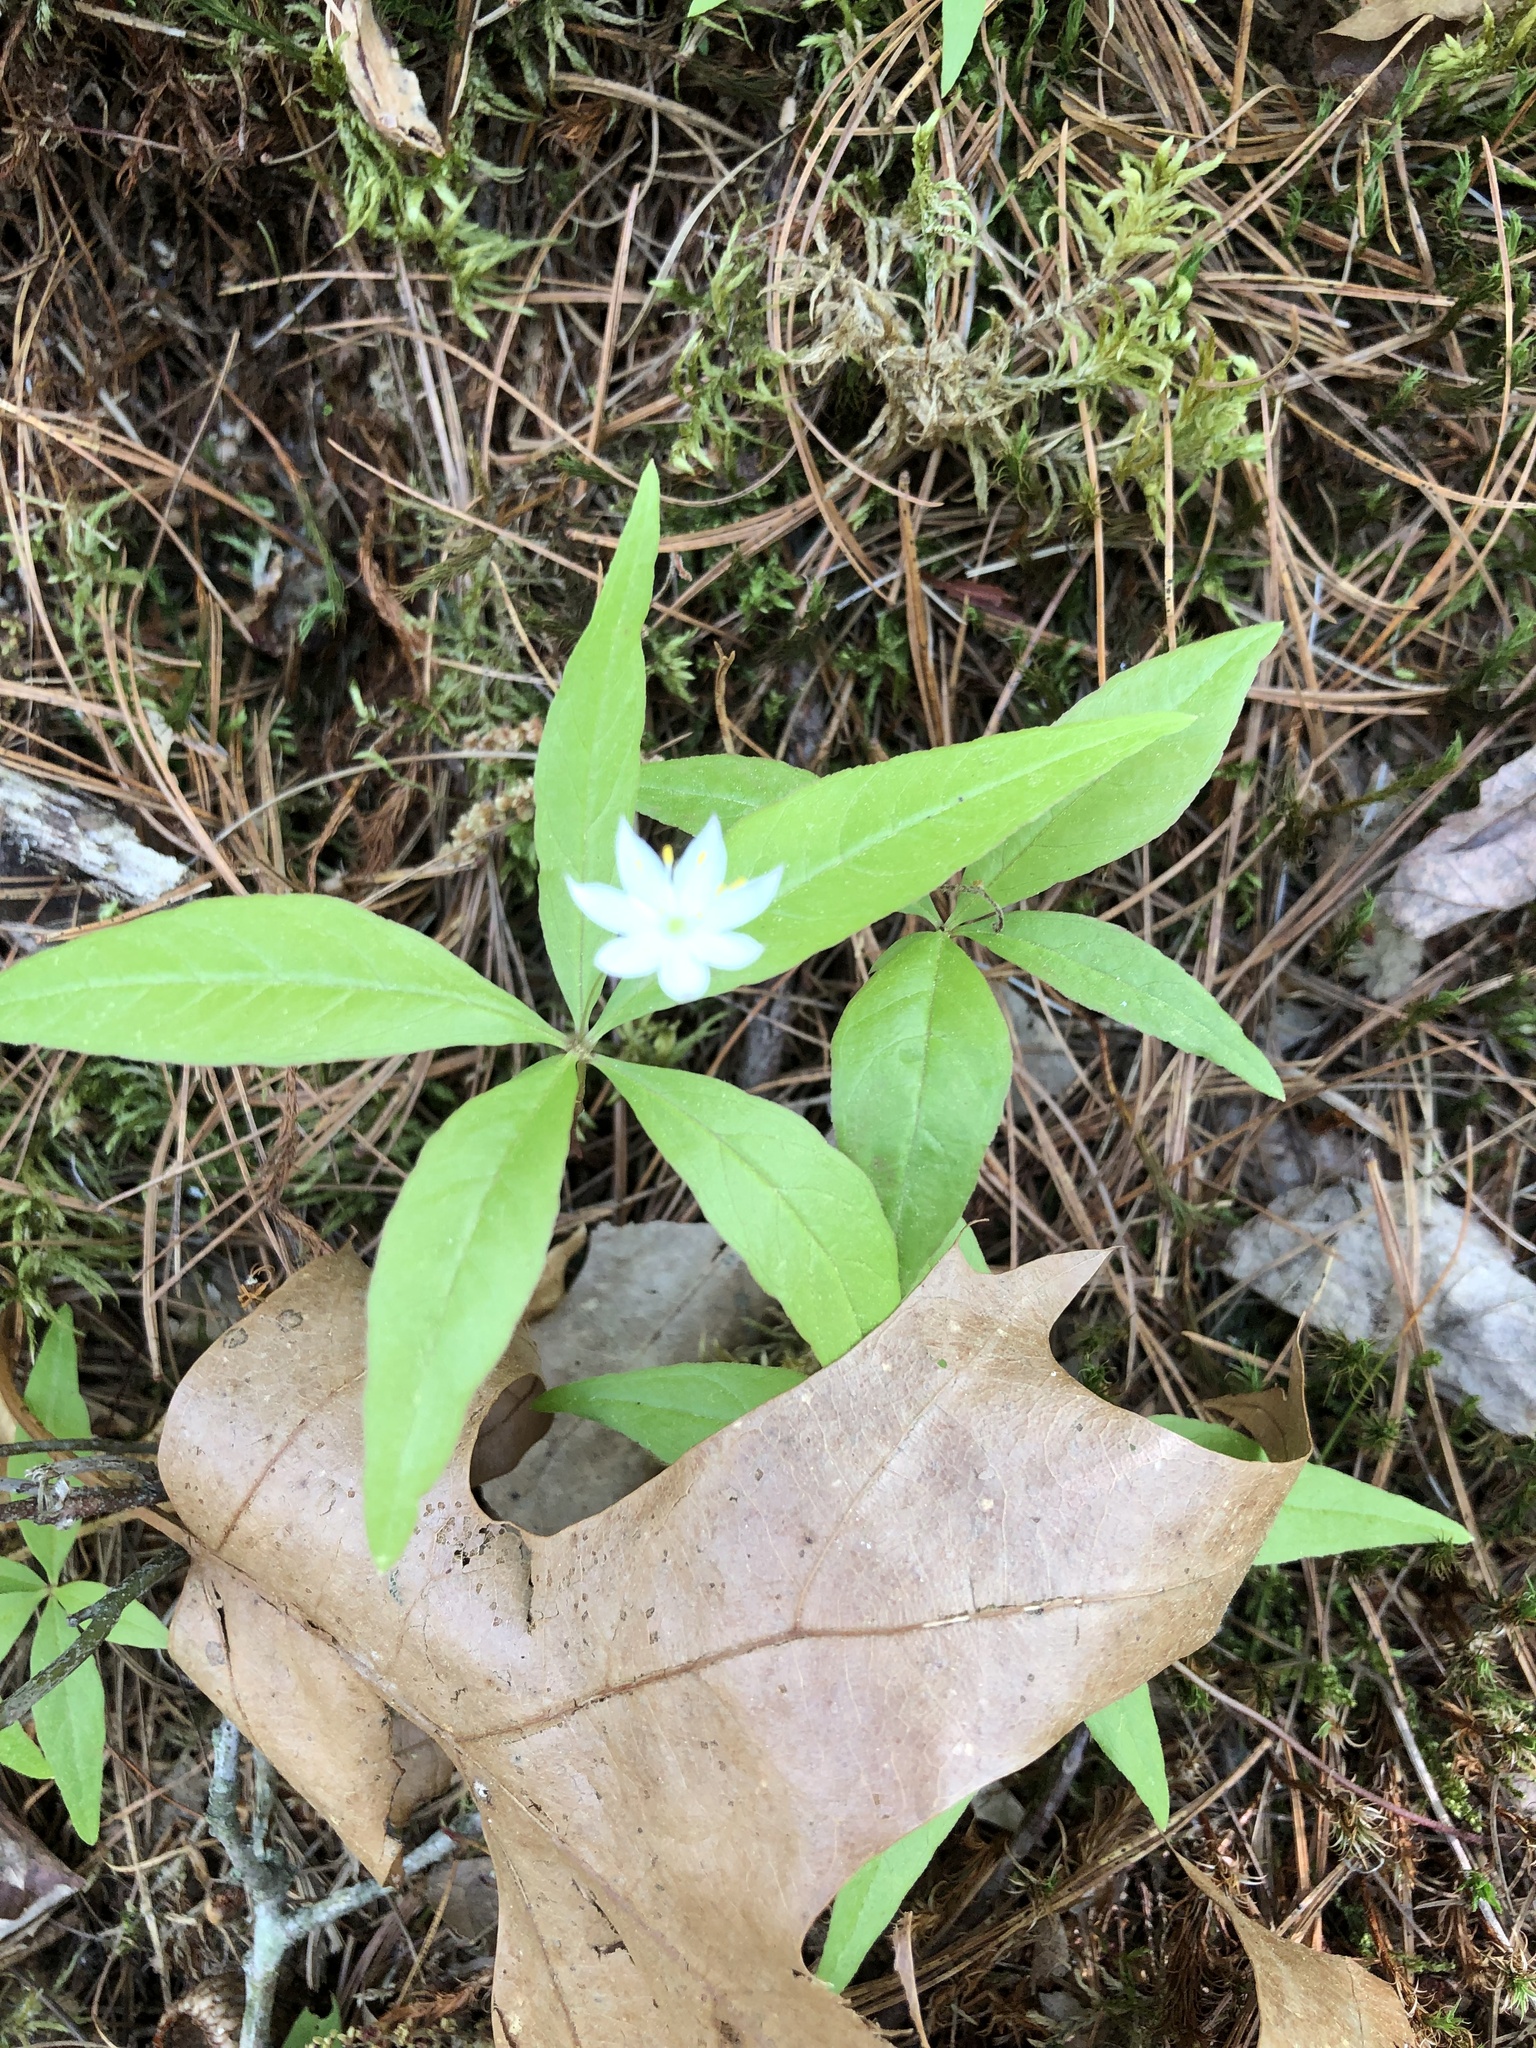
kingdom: Plantae
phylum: Tracheophyta
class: Magnoliopsida
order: Ericales
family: Primulaceae
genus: Lysimachia
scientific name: Lysimachia borealis
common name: American starflower
